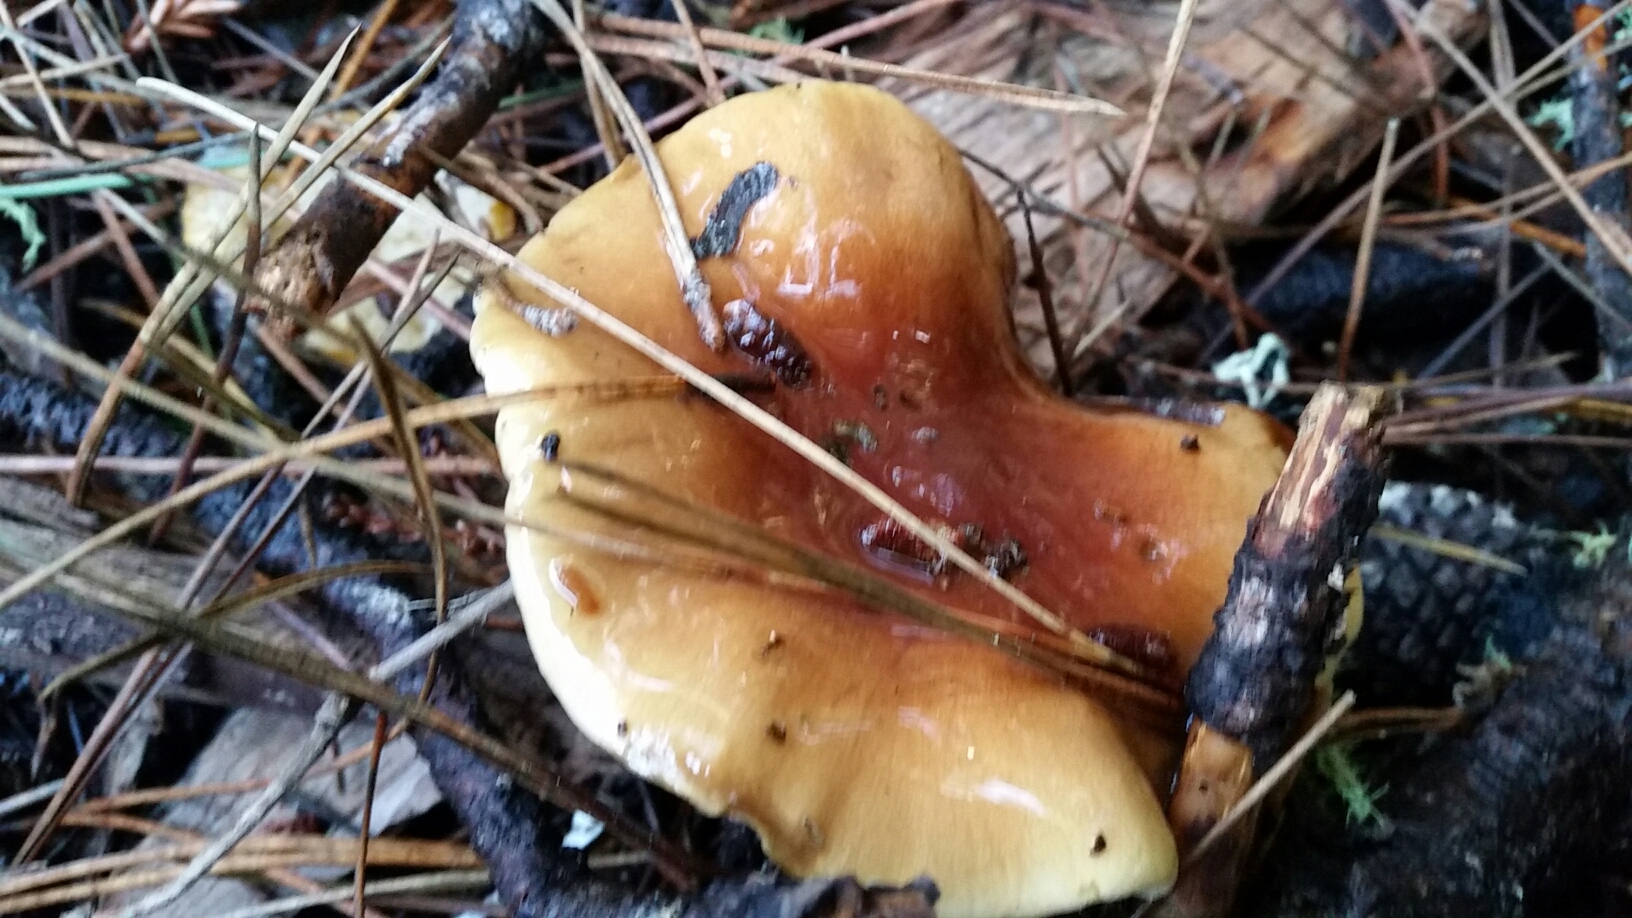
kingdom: Fungi
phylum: Basidiomycota
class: Agaricomycetes
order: Agaricales
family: Strophariaceae
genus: Pholiota
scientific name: Pholiota velaglutinosa
